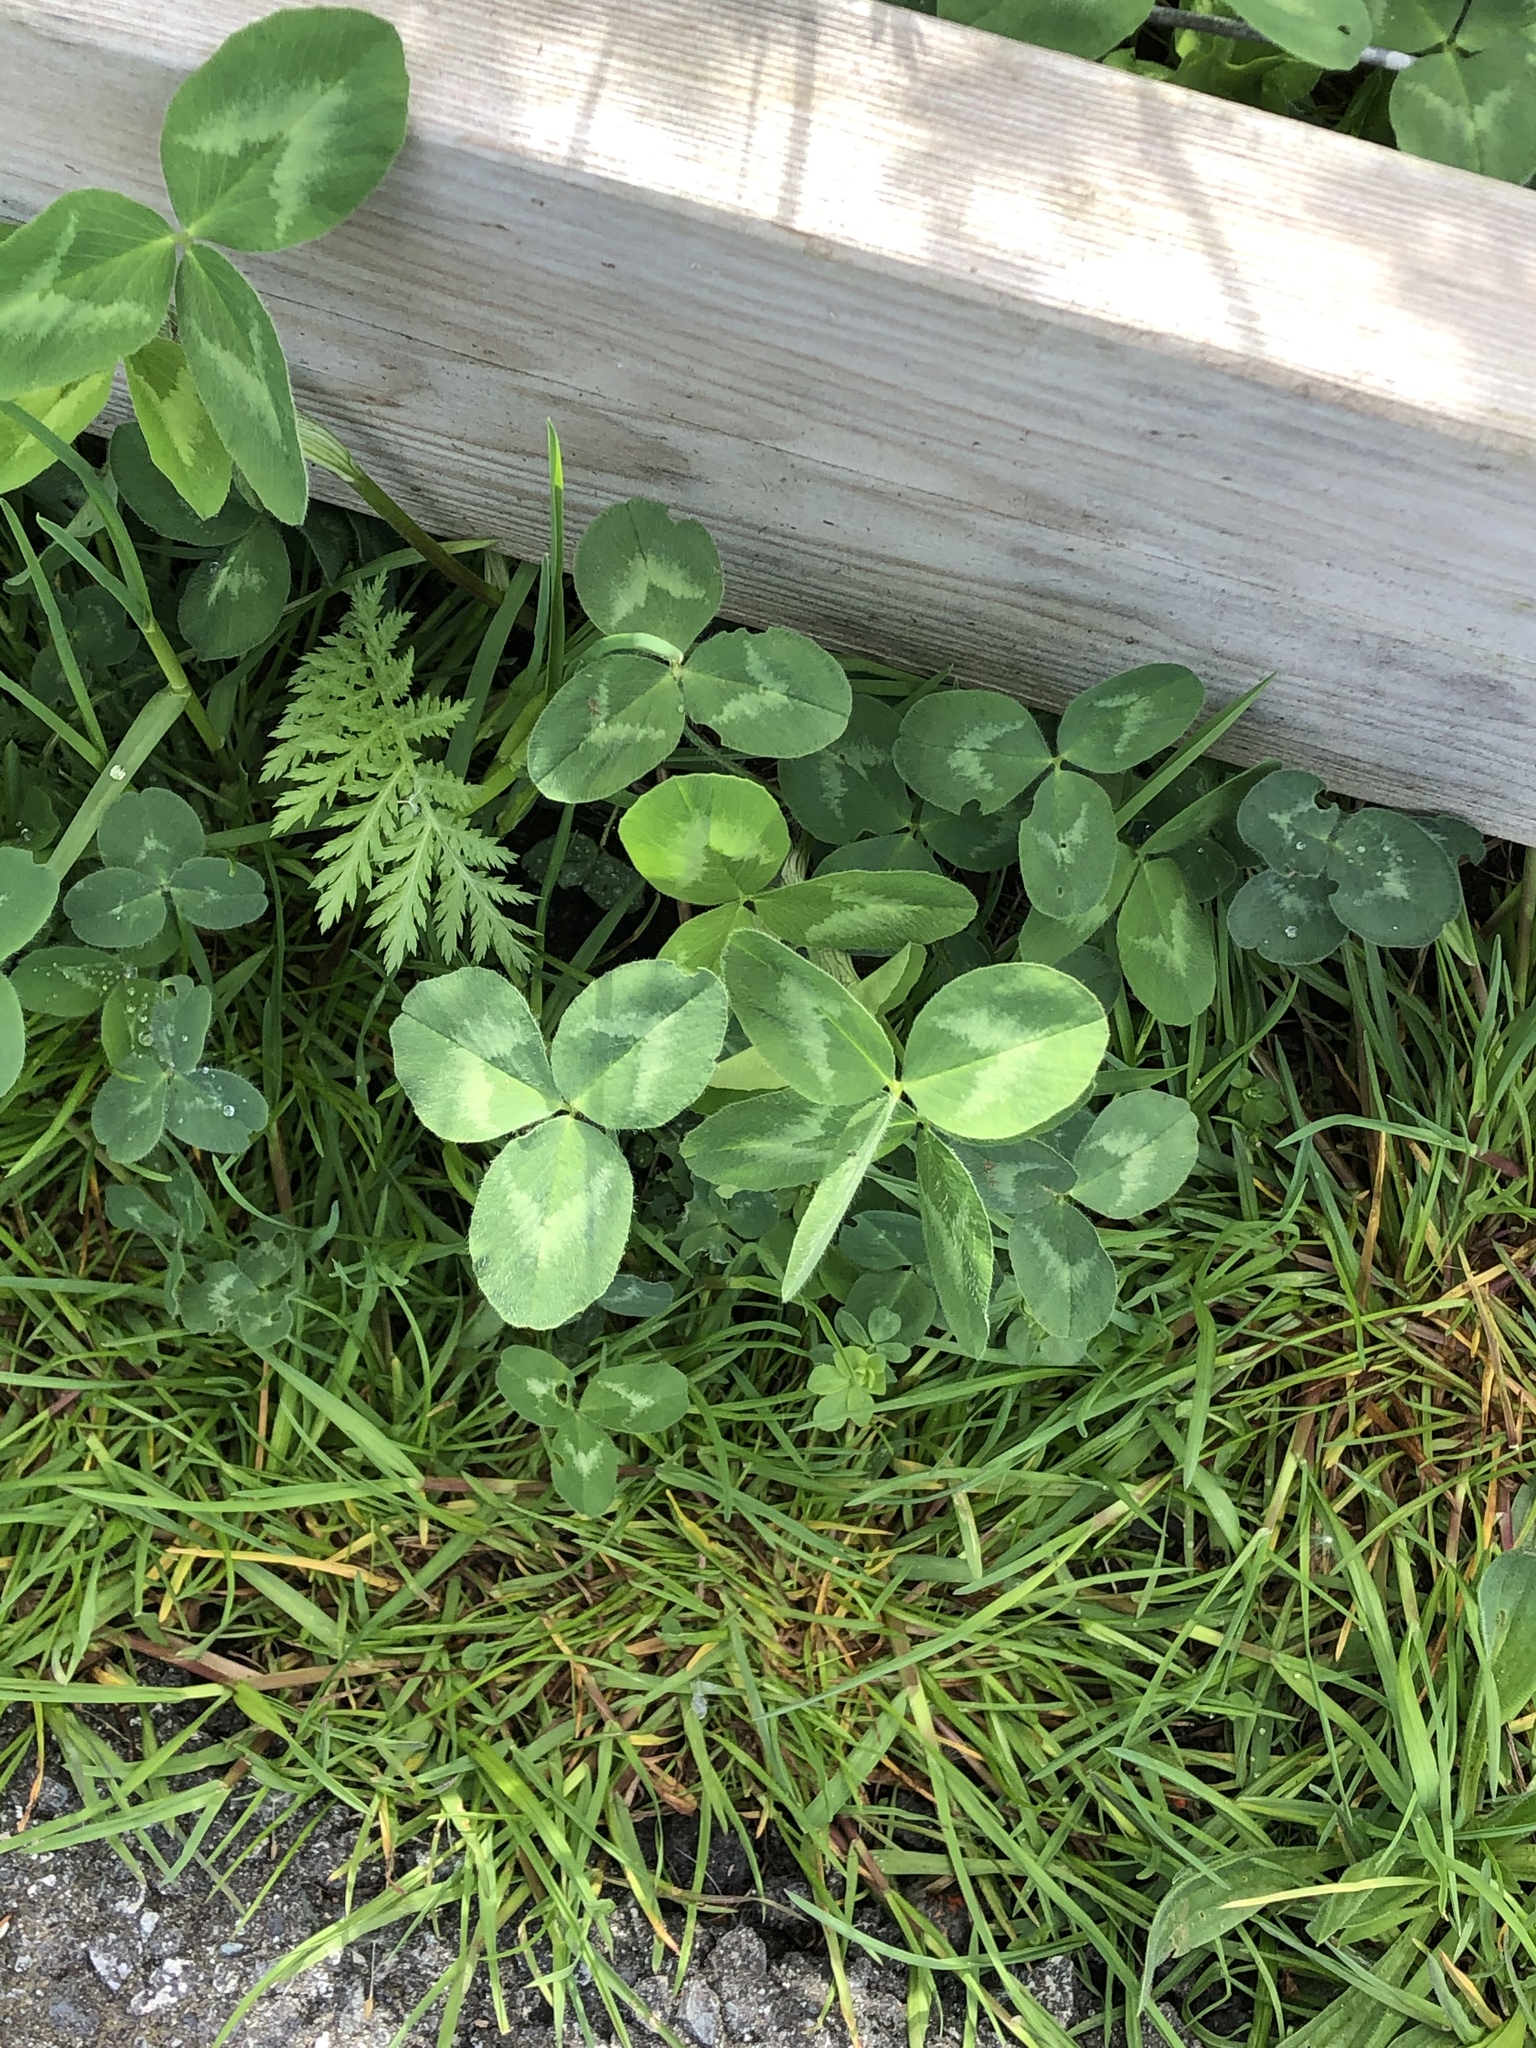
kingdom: Plantae
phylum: Tracheophyta
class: Magnoliopsida
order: Fabales
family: Fabaceae
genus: Trifolium
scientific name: Trifolium pratense
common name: Red clover
